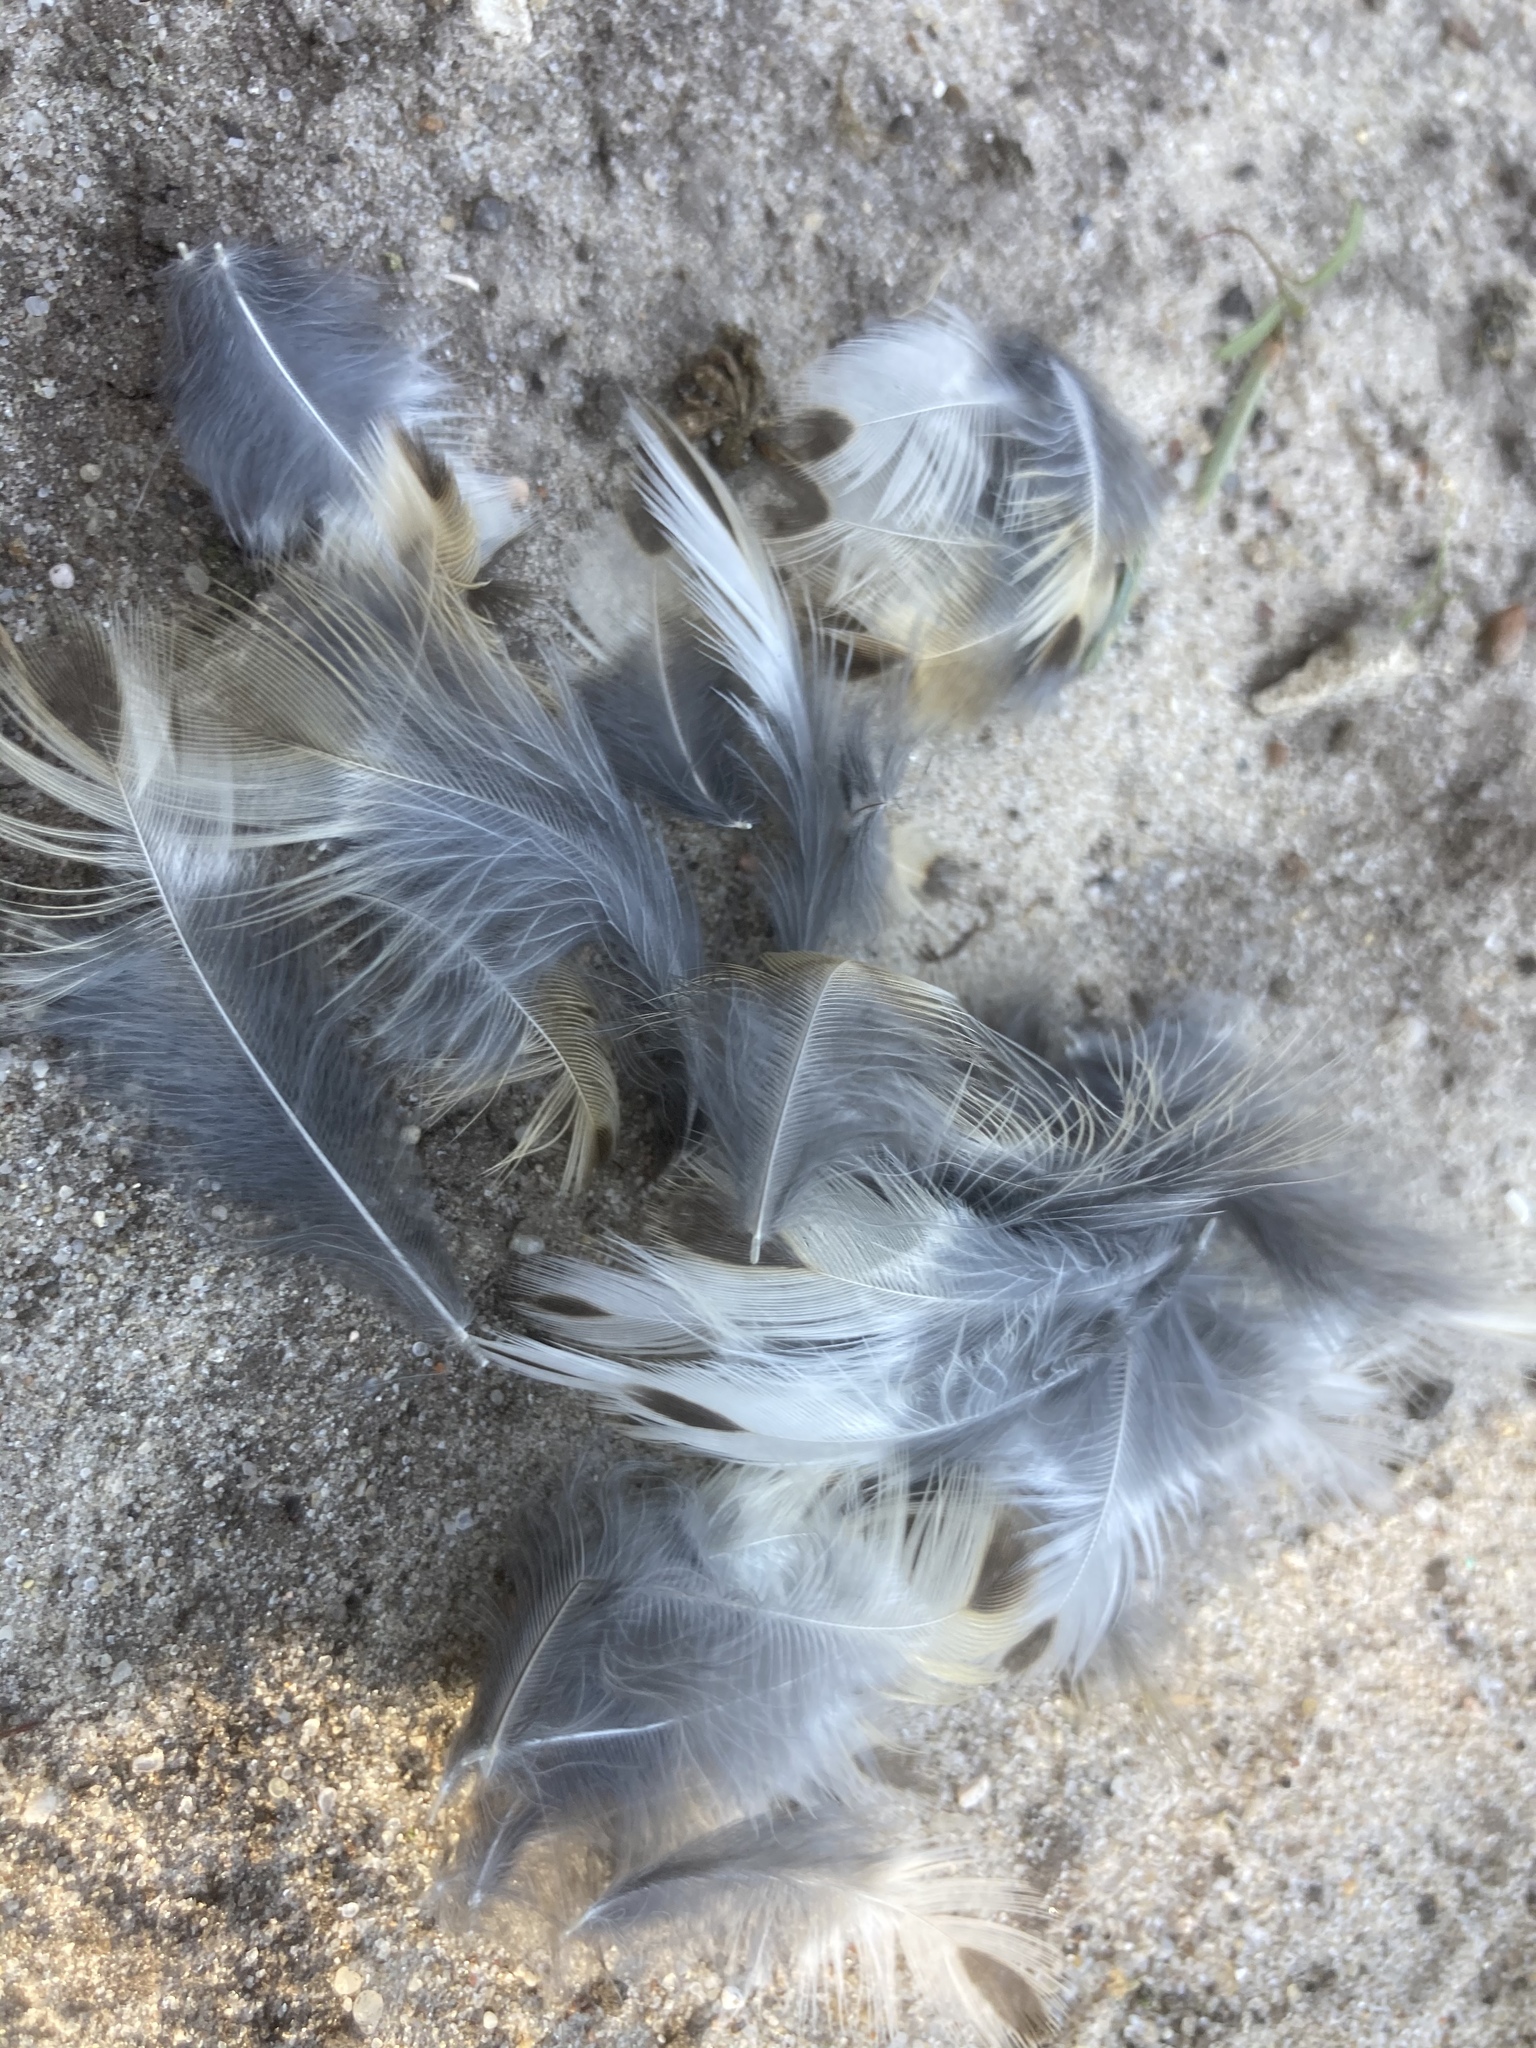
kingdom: Animalia
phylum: Chordata
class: Aves
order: Passeriformes
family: Turdidae
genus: Turdus
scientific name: Turdus philomelos
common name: Song thrush
